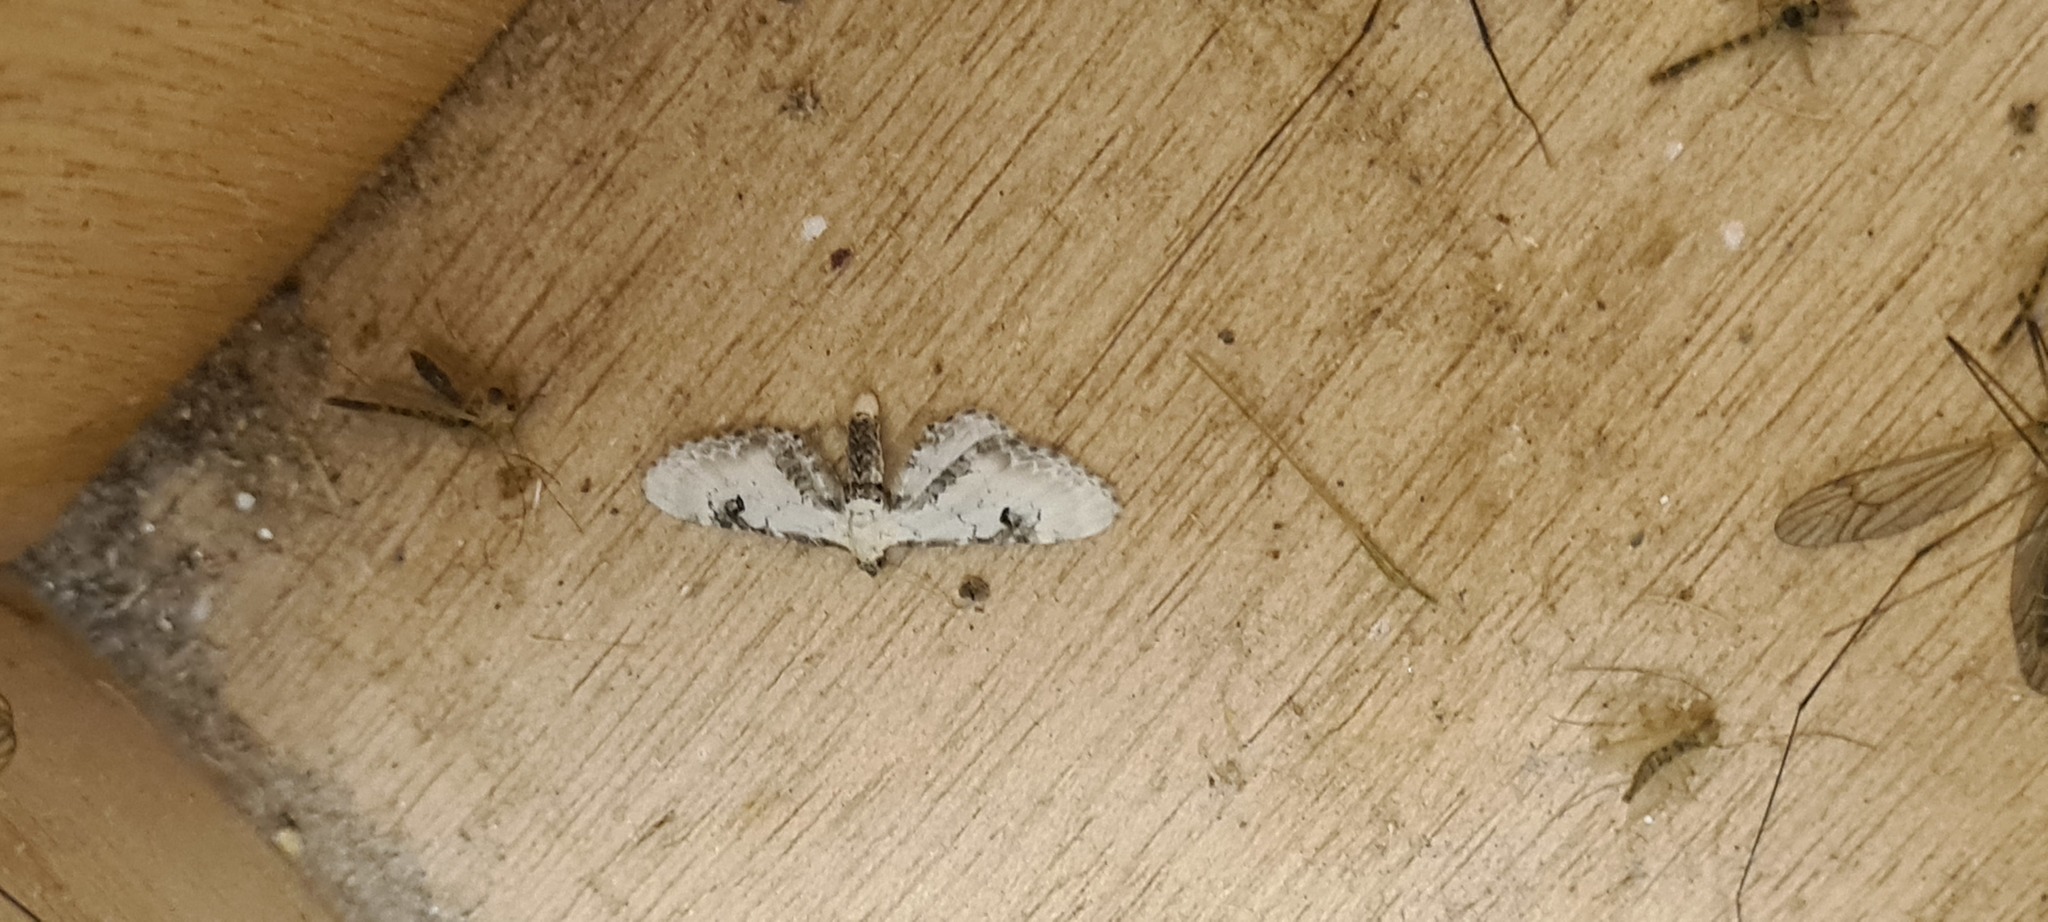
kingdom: Animalia
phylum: Arthropoda
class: Insecta
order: Lepidoptera
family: Geometridae
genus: Eupithecia
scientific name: Eupithecia centaureata
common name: Lime-speck pug
